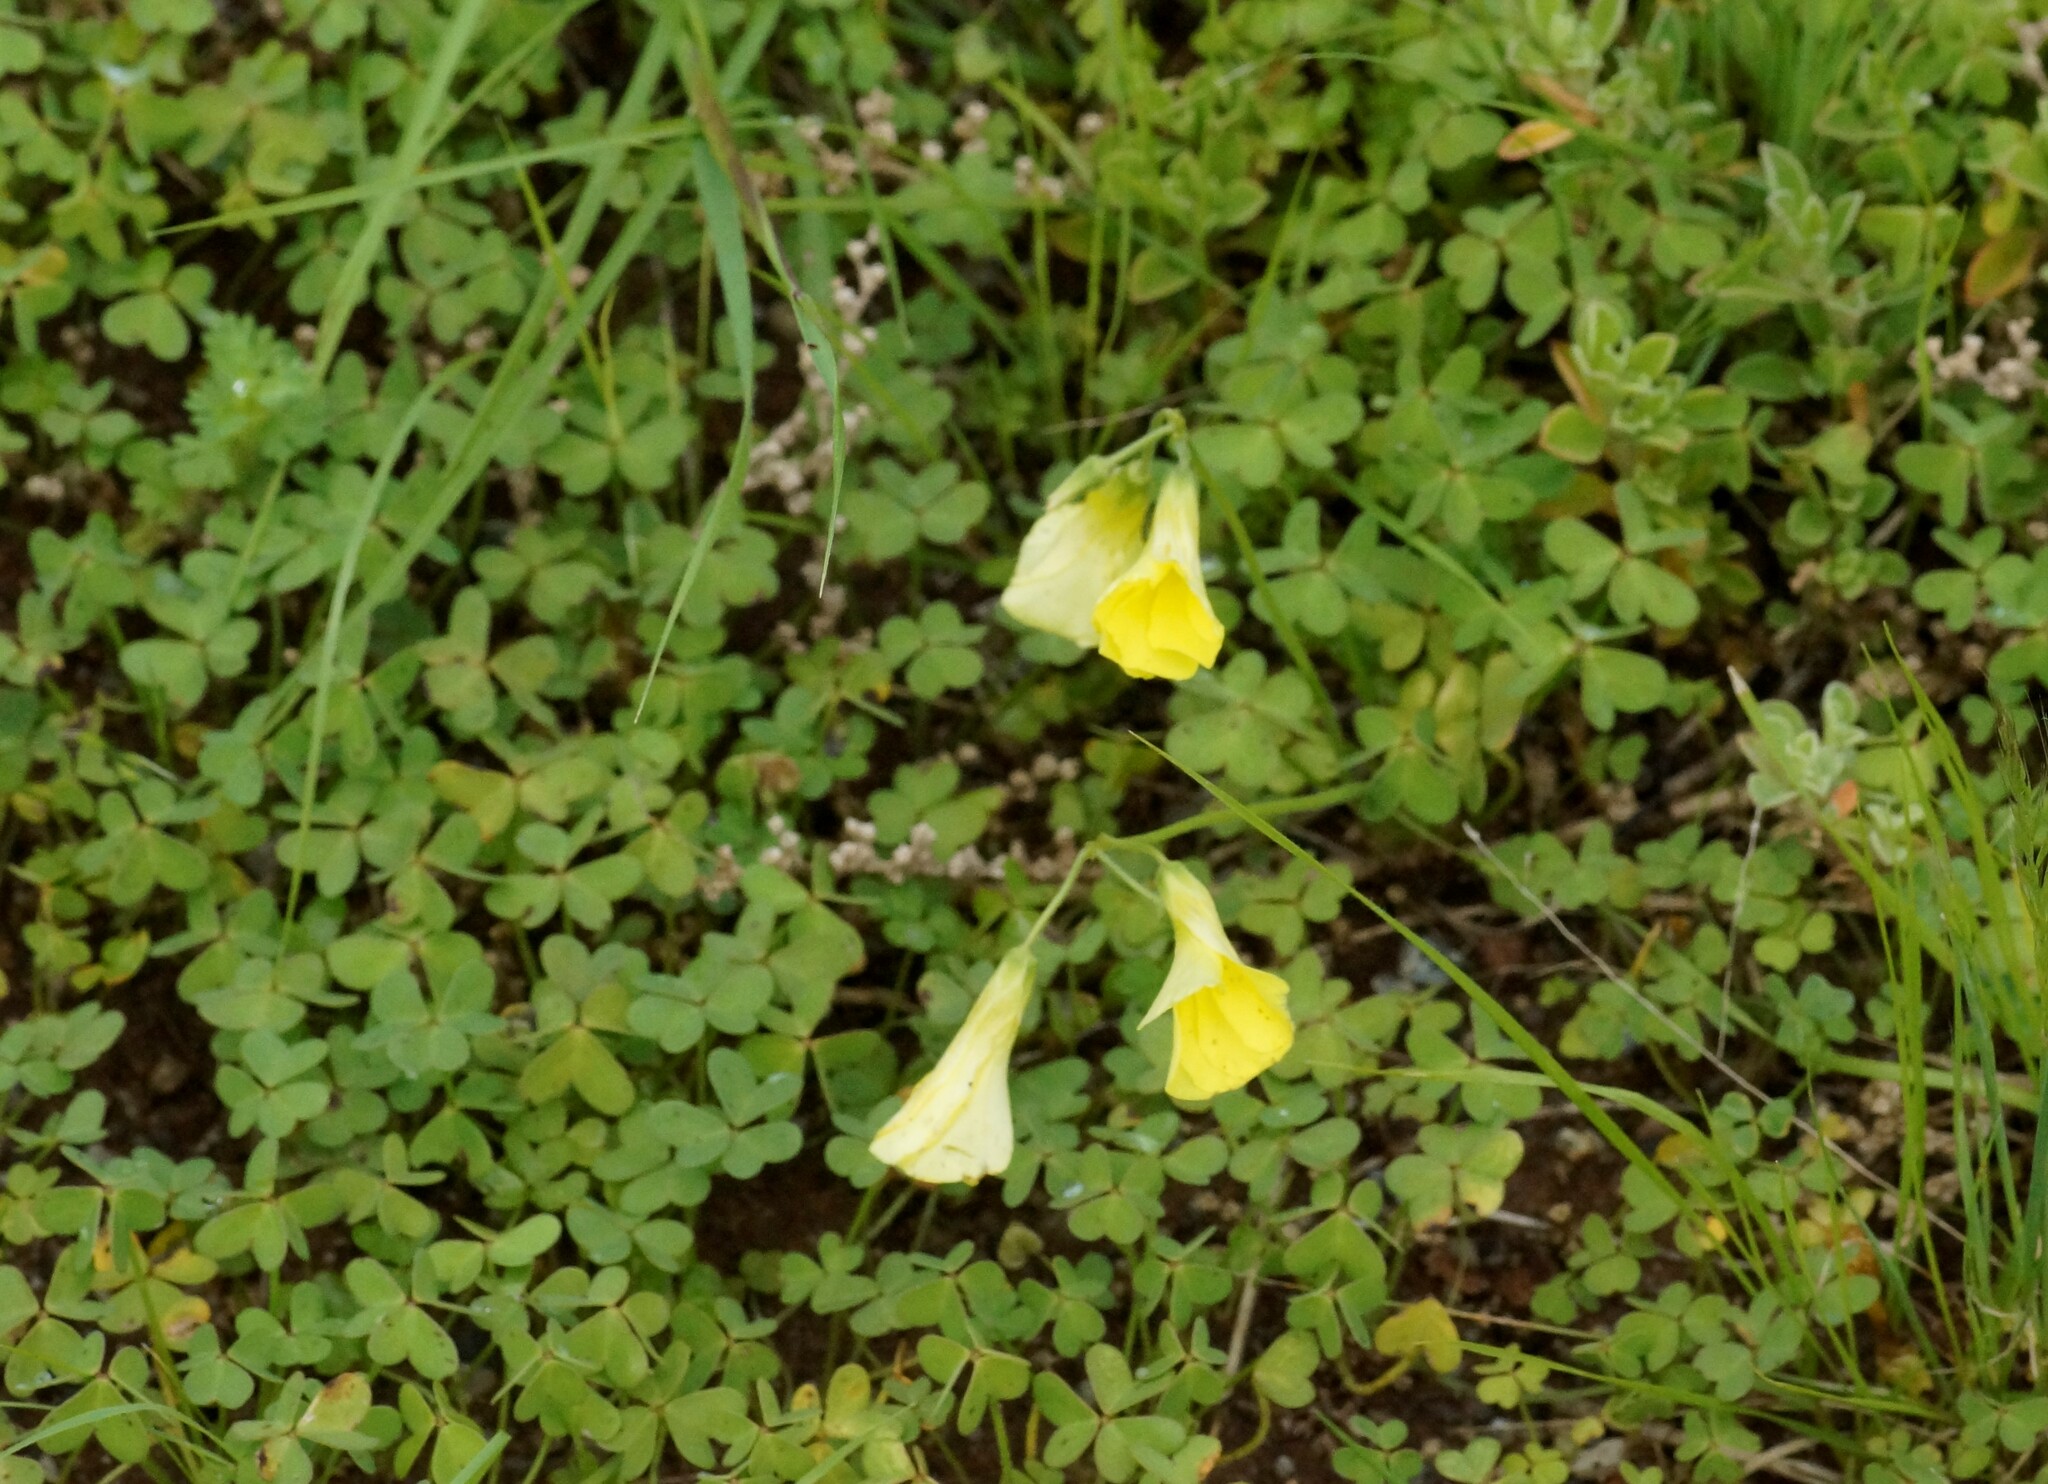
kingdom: Plantae
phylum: Tracheophyta
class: Magnoliopsida
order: Oxalidales
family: Oxalidaceae
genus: Oxalis
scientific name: Oxalis pes-caprae
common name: Bermuda-buttercup
